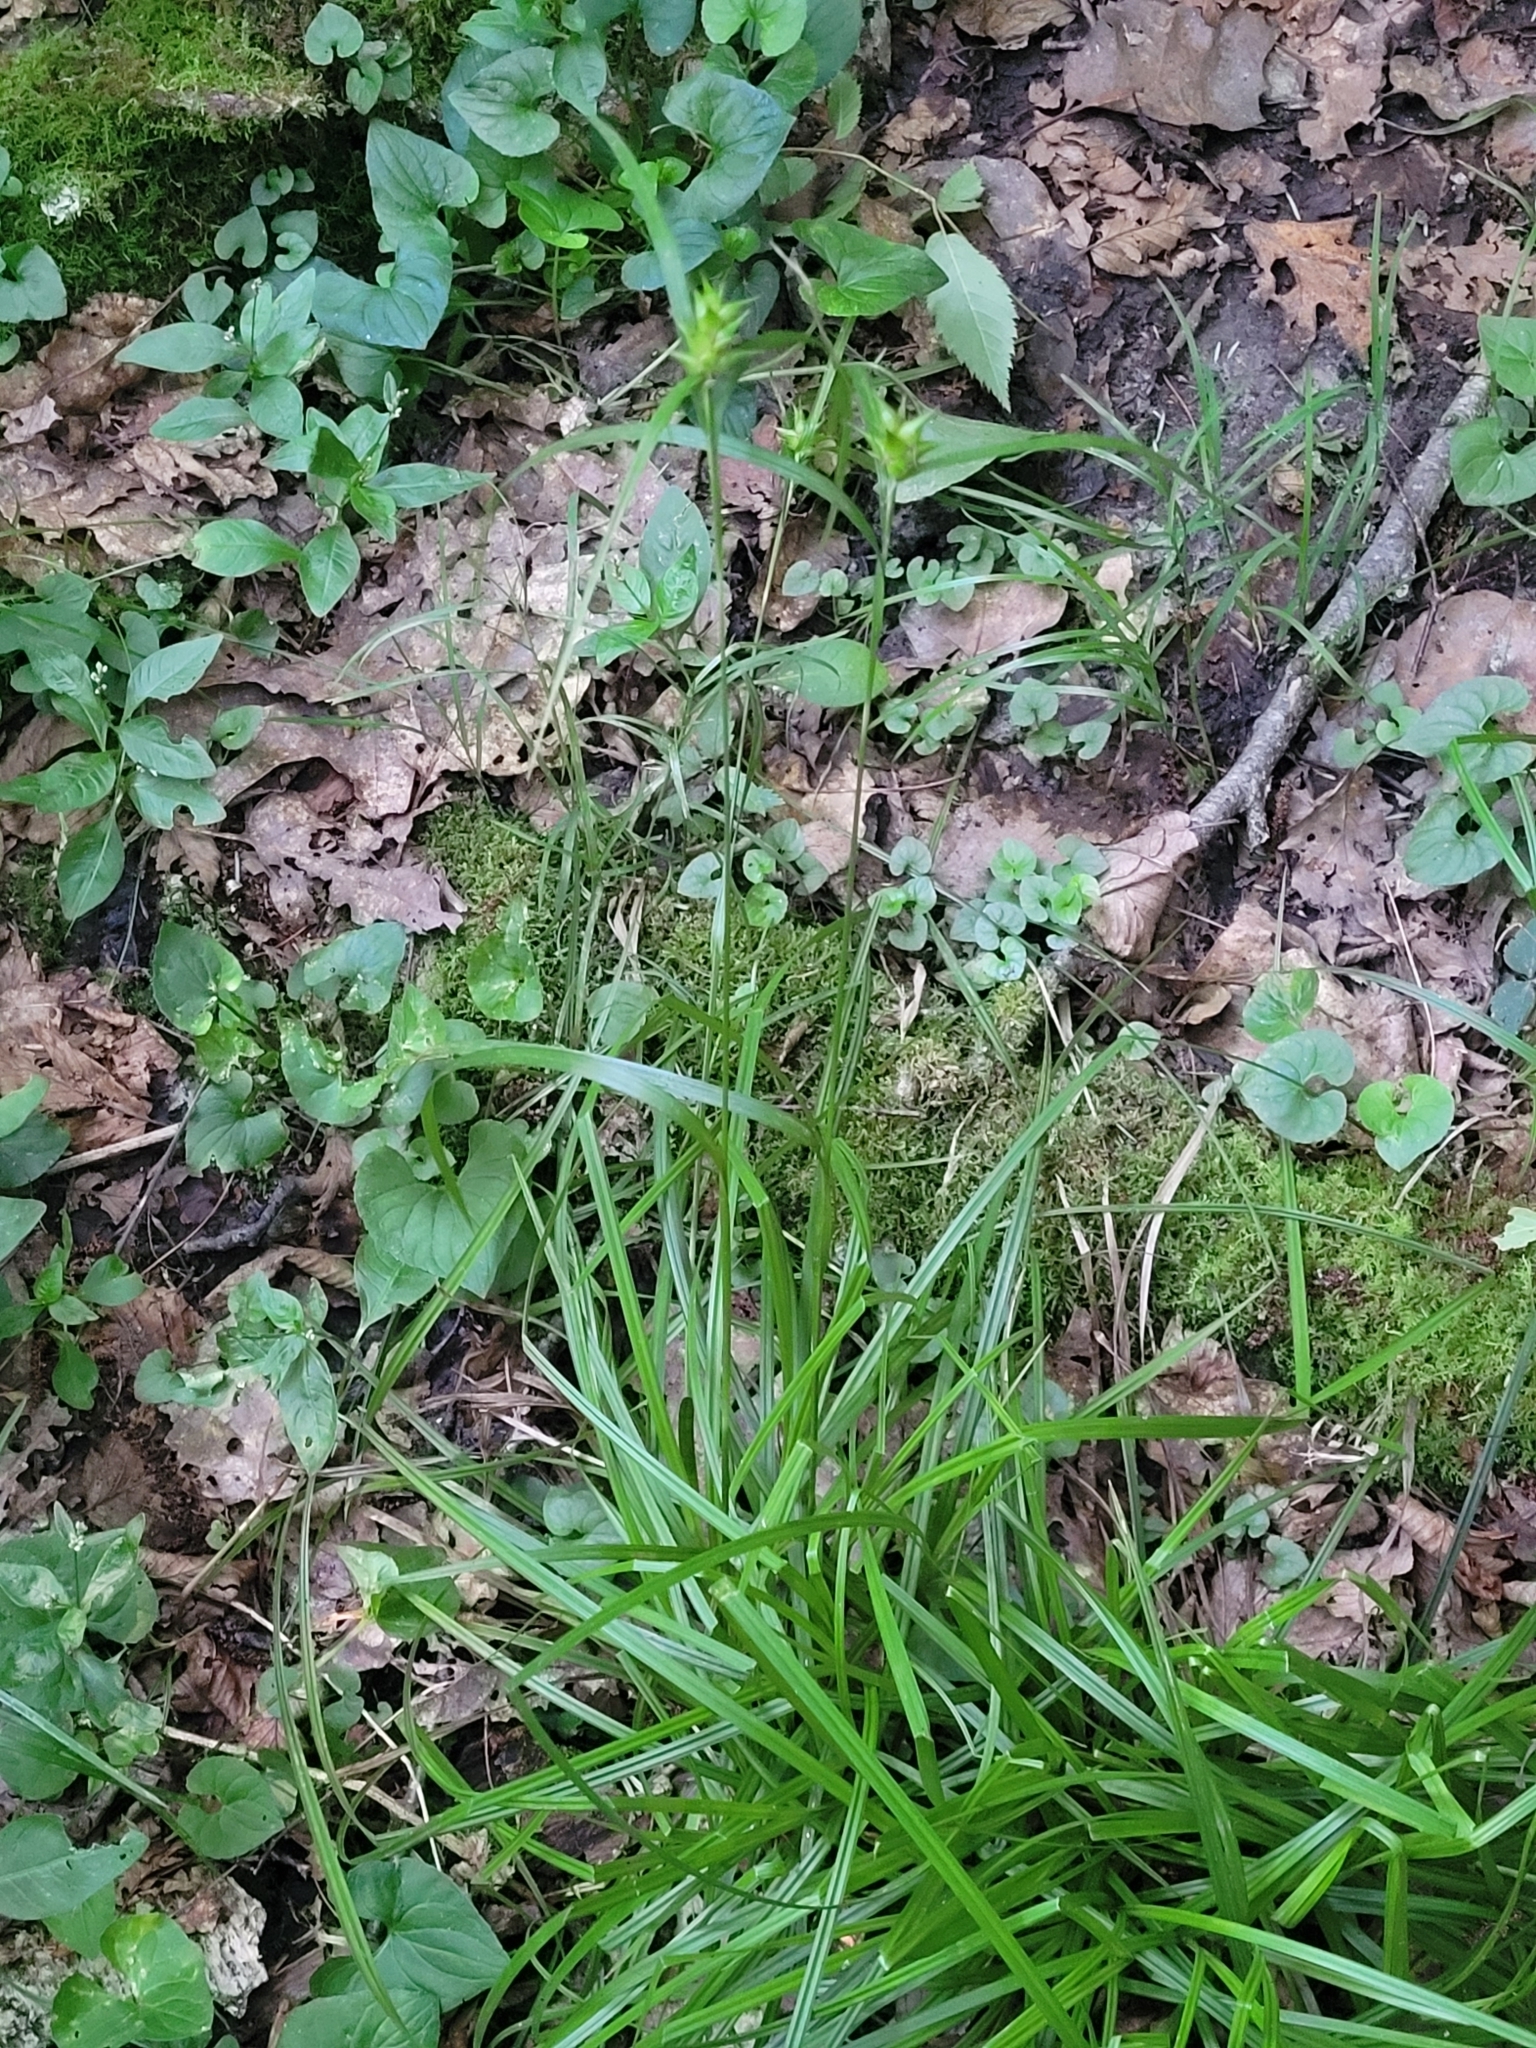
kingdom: Plantae
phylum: Tracheophyta
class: Liliopsida
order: Poales
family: Cyperaceae
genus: Carex
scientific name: Carex intumescens
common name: Greater bladder sedge
